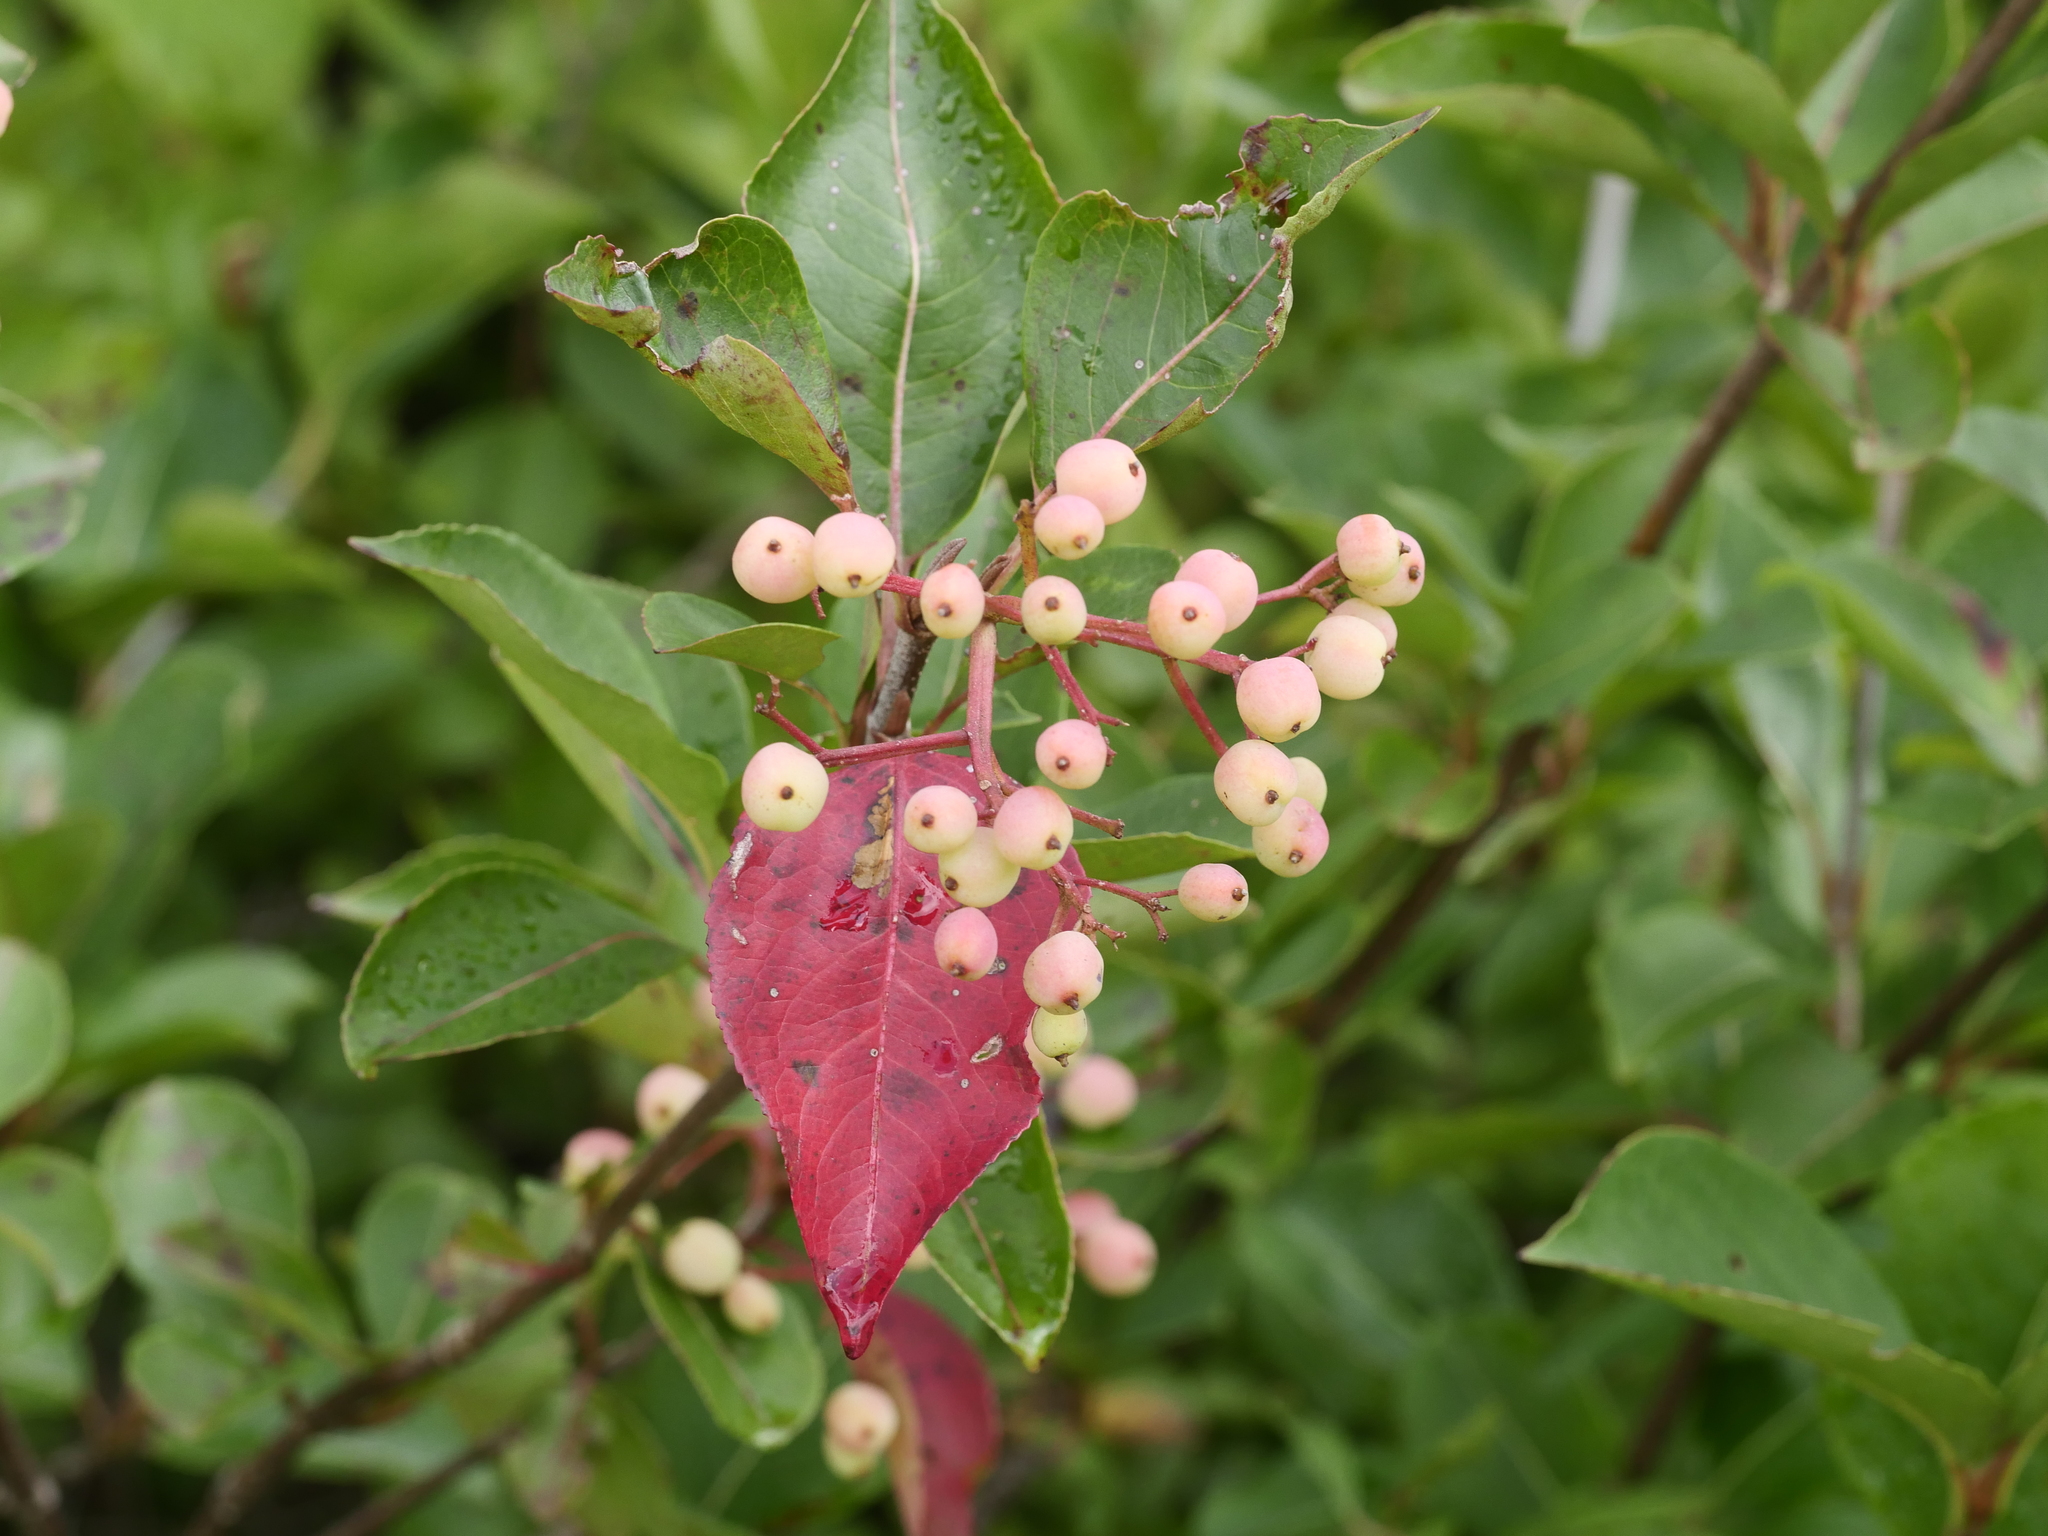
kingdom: Plantae
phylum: Tracheophyta
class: Magnoliopsida
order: Dipsacales
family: Viburnaceae
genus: Viburnum
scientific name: Viburnum cassinoides
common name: Swamp haw
